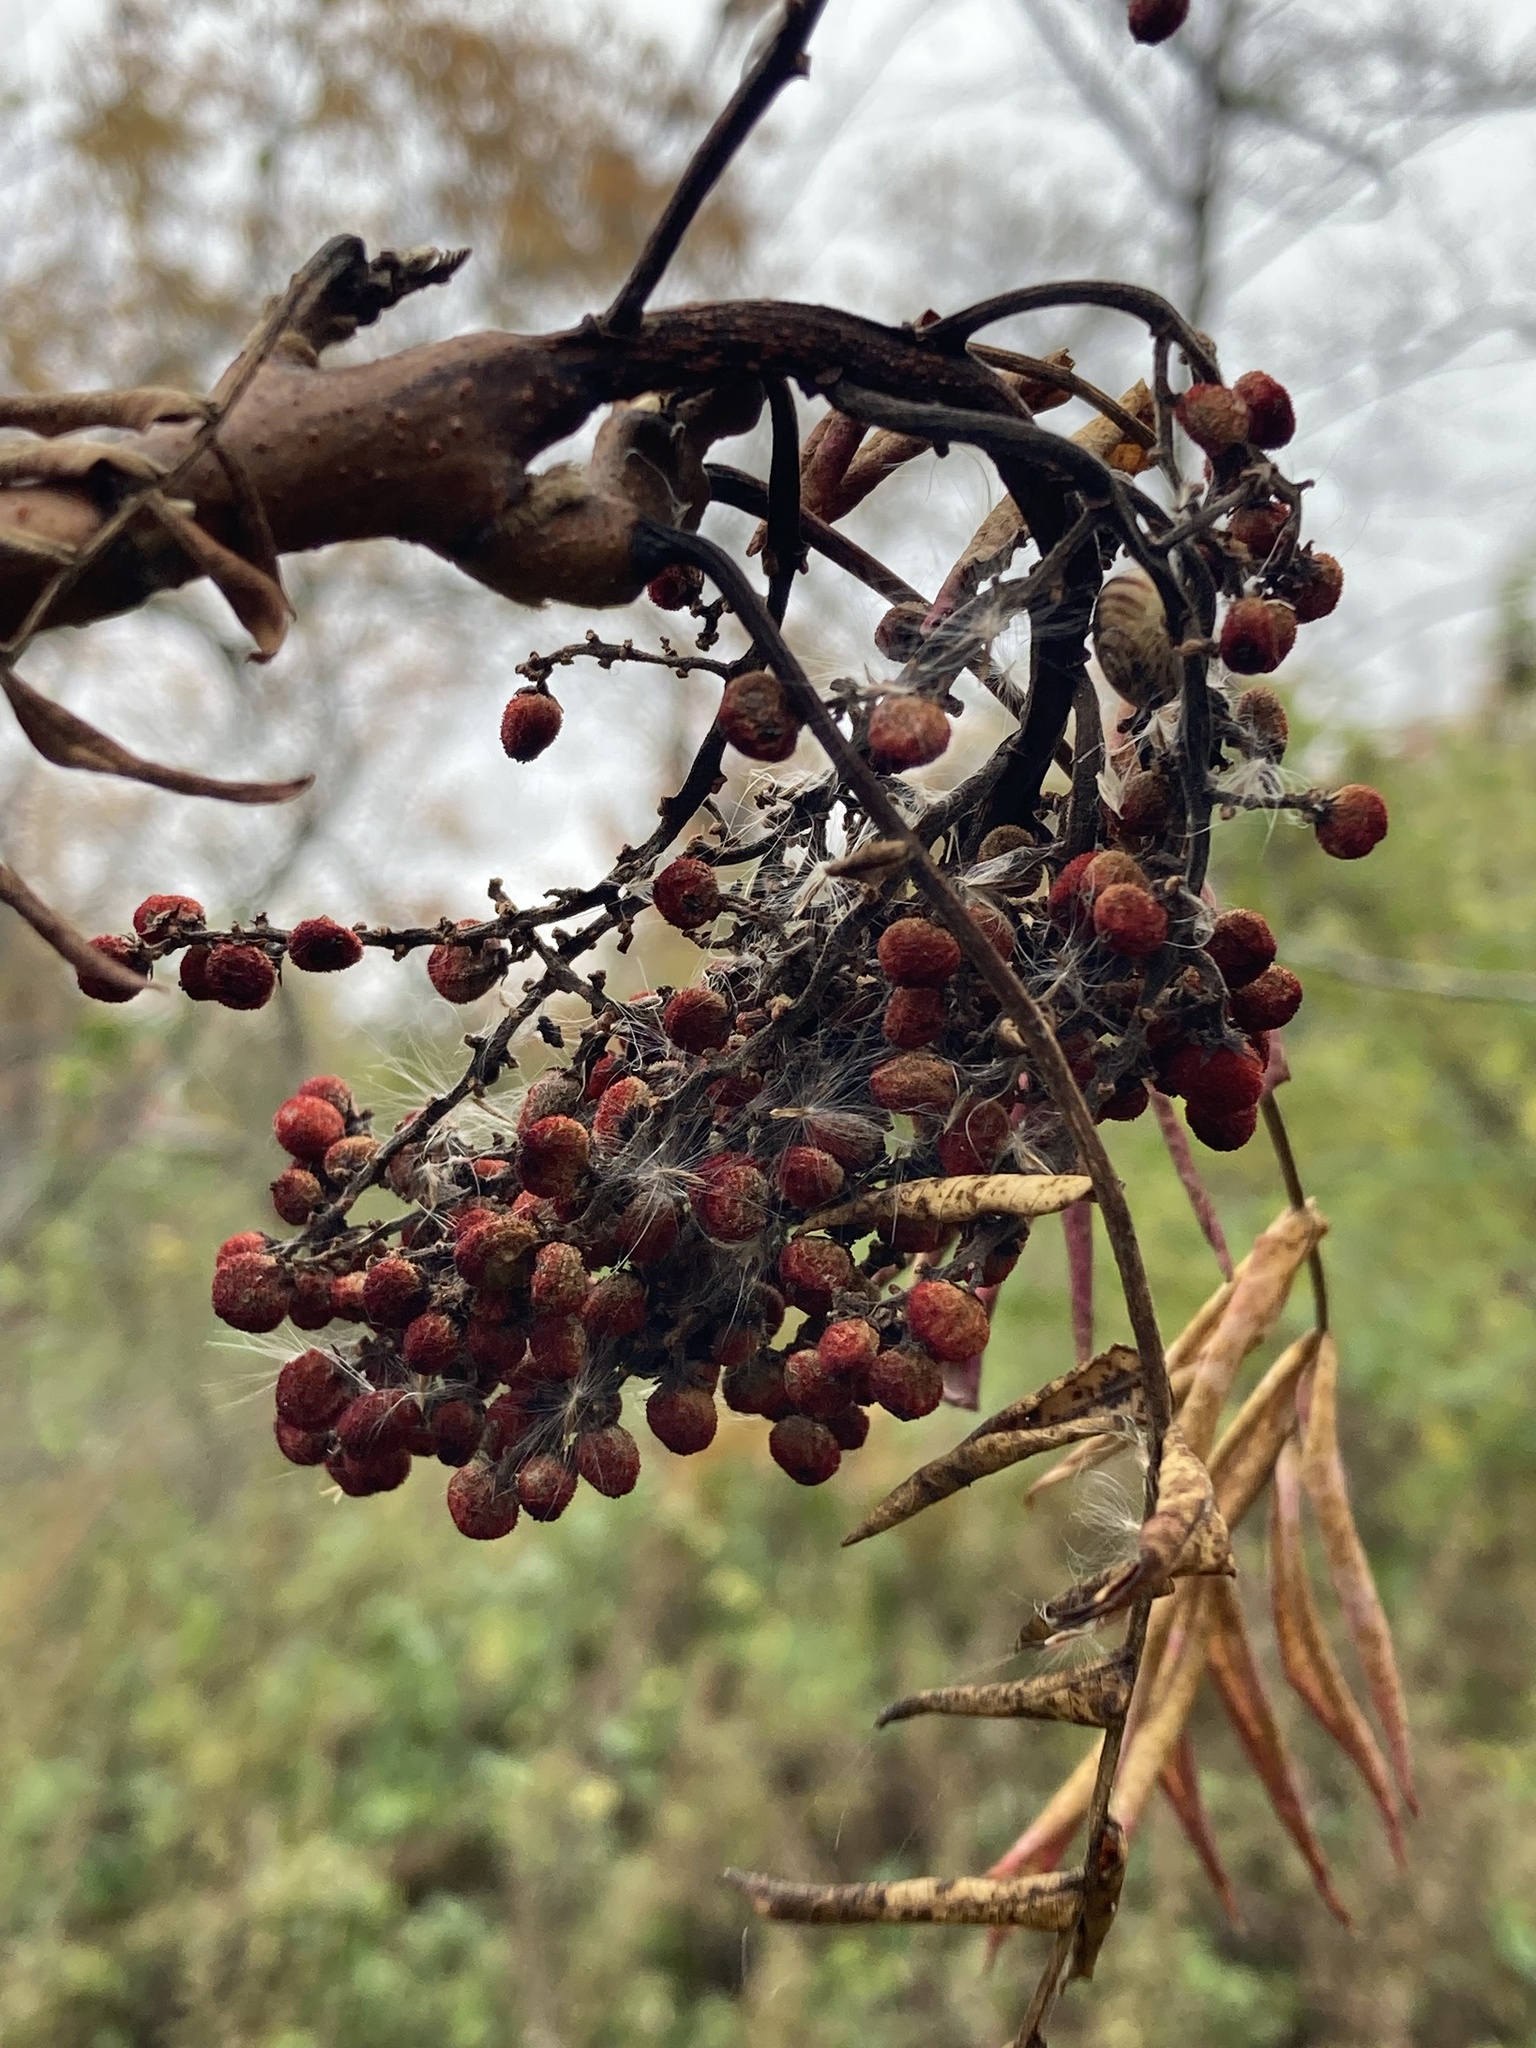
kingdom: Plantae
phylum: Tracheophyta
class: Magnoliopsida
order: Sapindales
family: Anacardiaceae
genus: Rhus
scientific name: Rhus glabra
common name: Scarlet sumac
